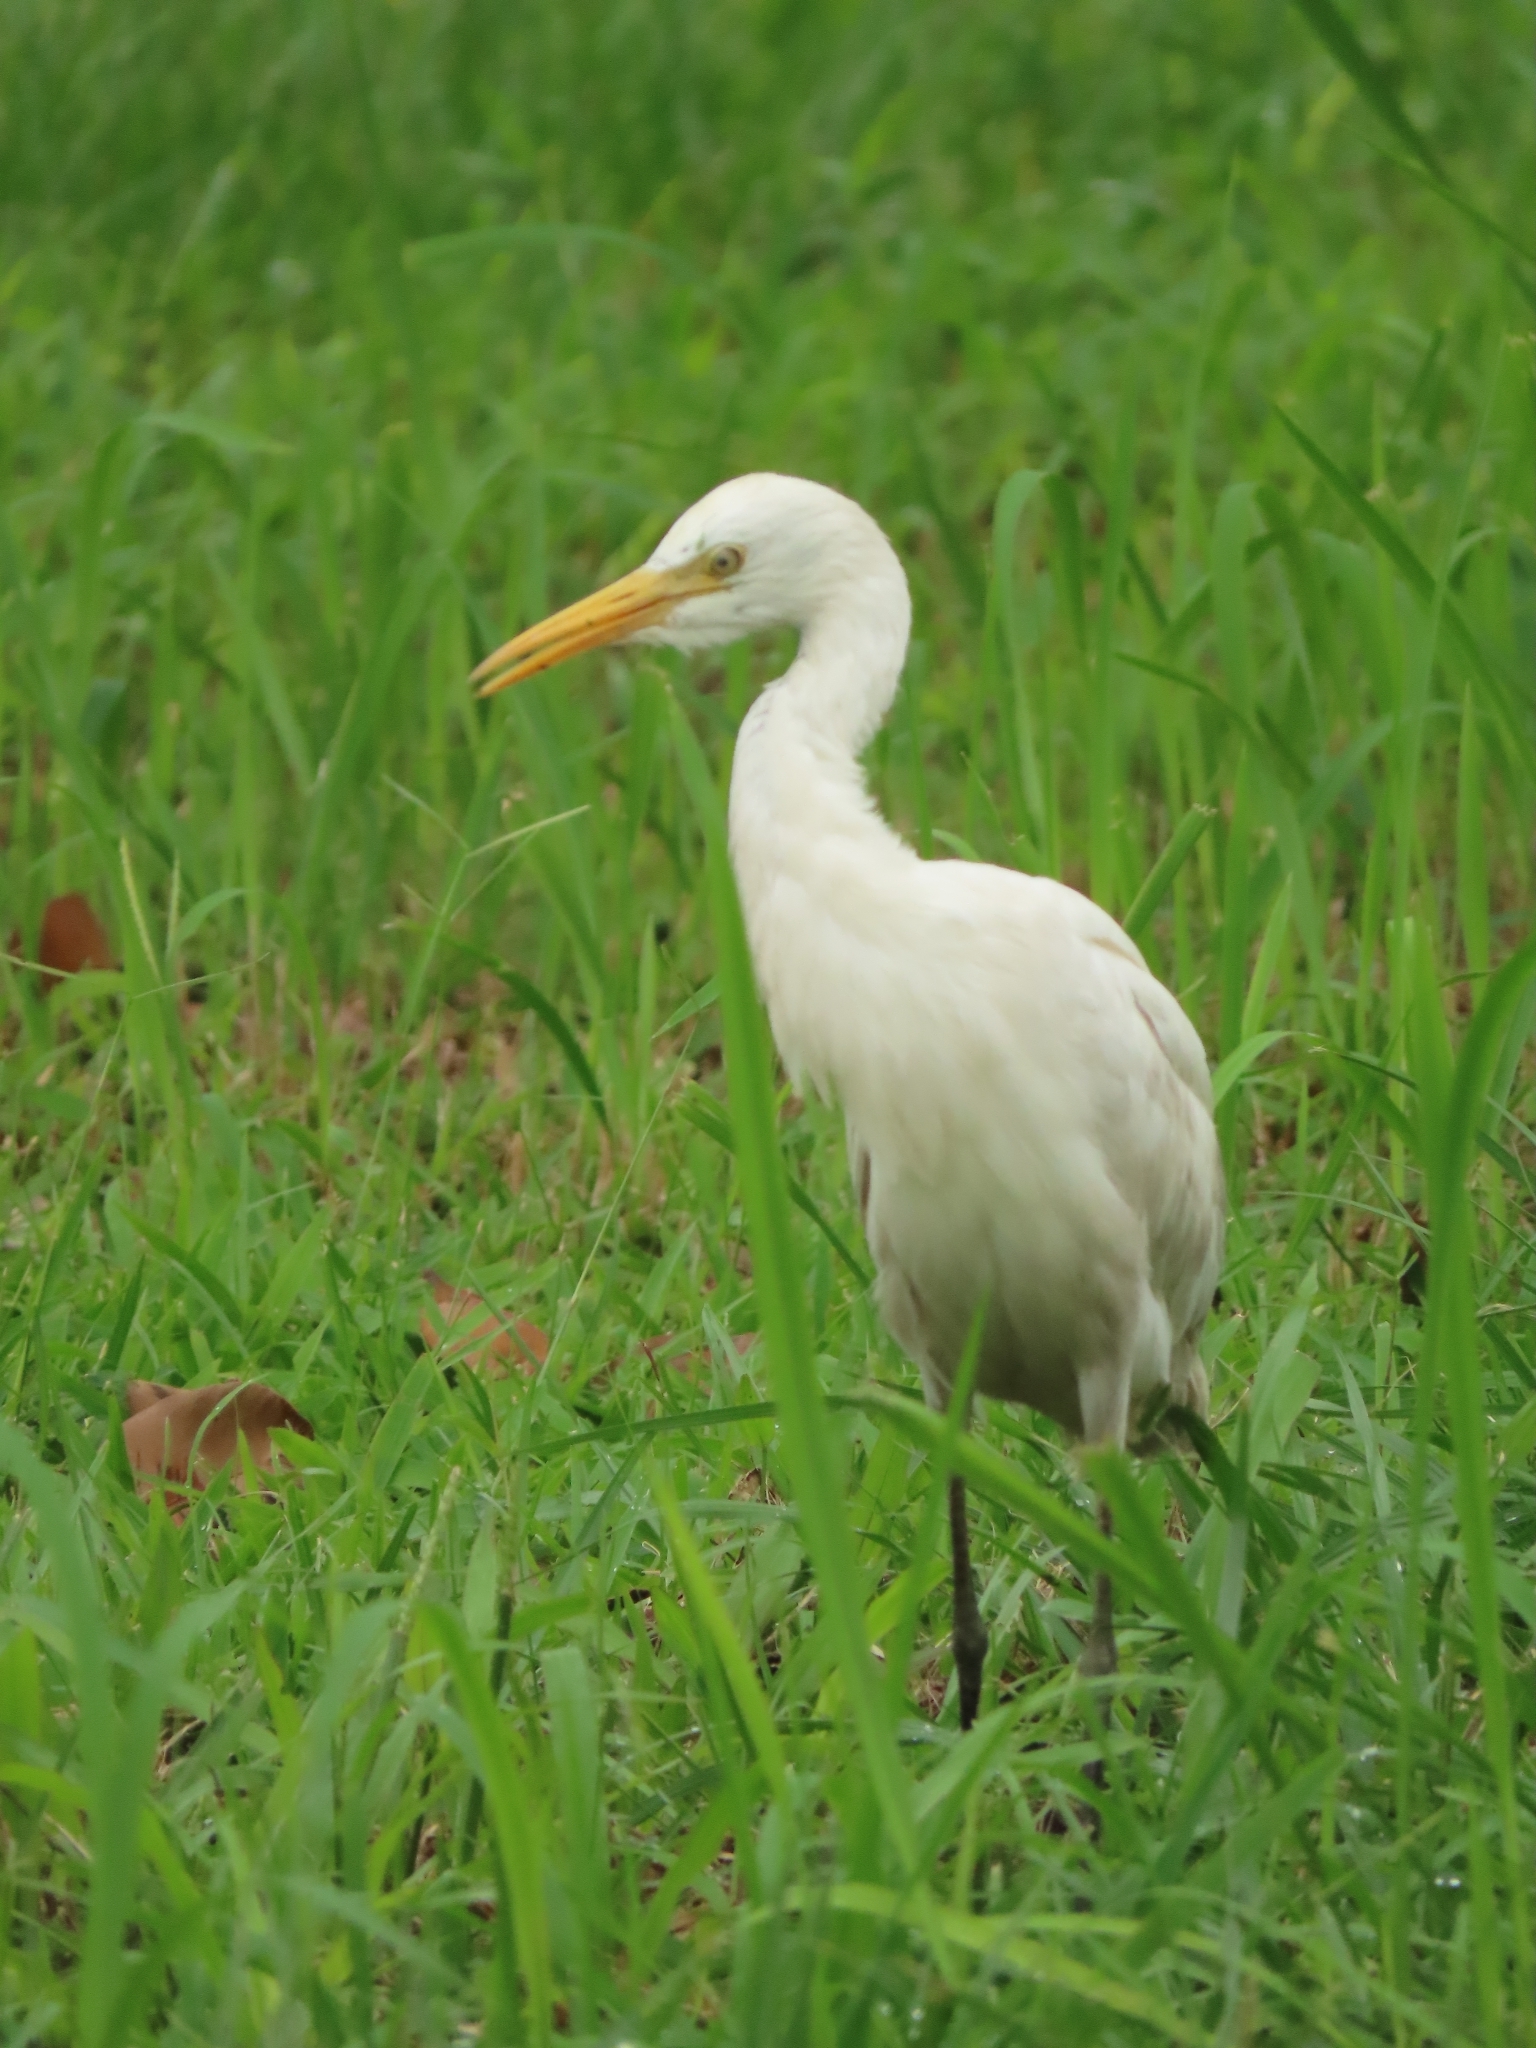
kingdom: Animalia
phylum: Chordata
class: Aves
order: Pelecaniformes
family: Ardeidae
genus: Bubulcus
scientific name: Bubulcus coromandus
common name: Eastern cattle egret
